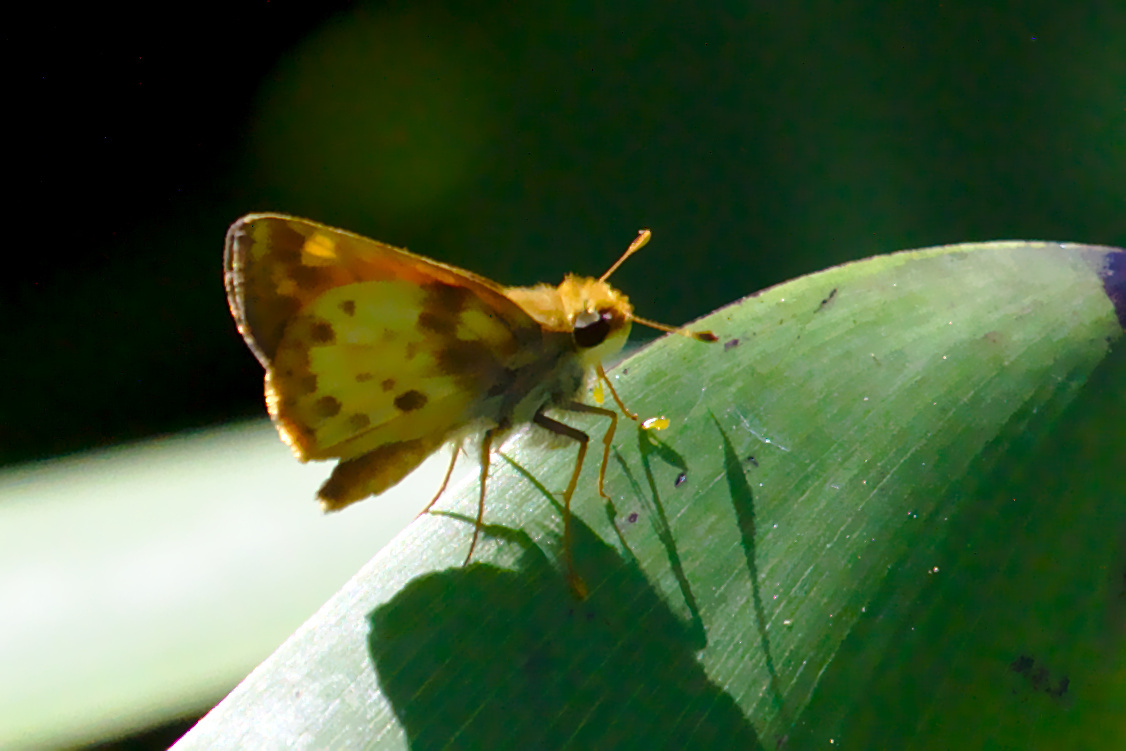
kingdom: Animalia
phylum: Arthropoda
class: Insecta
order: Lepidoptera
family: Hesperiidae
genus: Lon
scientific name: Lon zabulon
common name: Zabulon skipper
